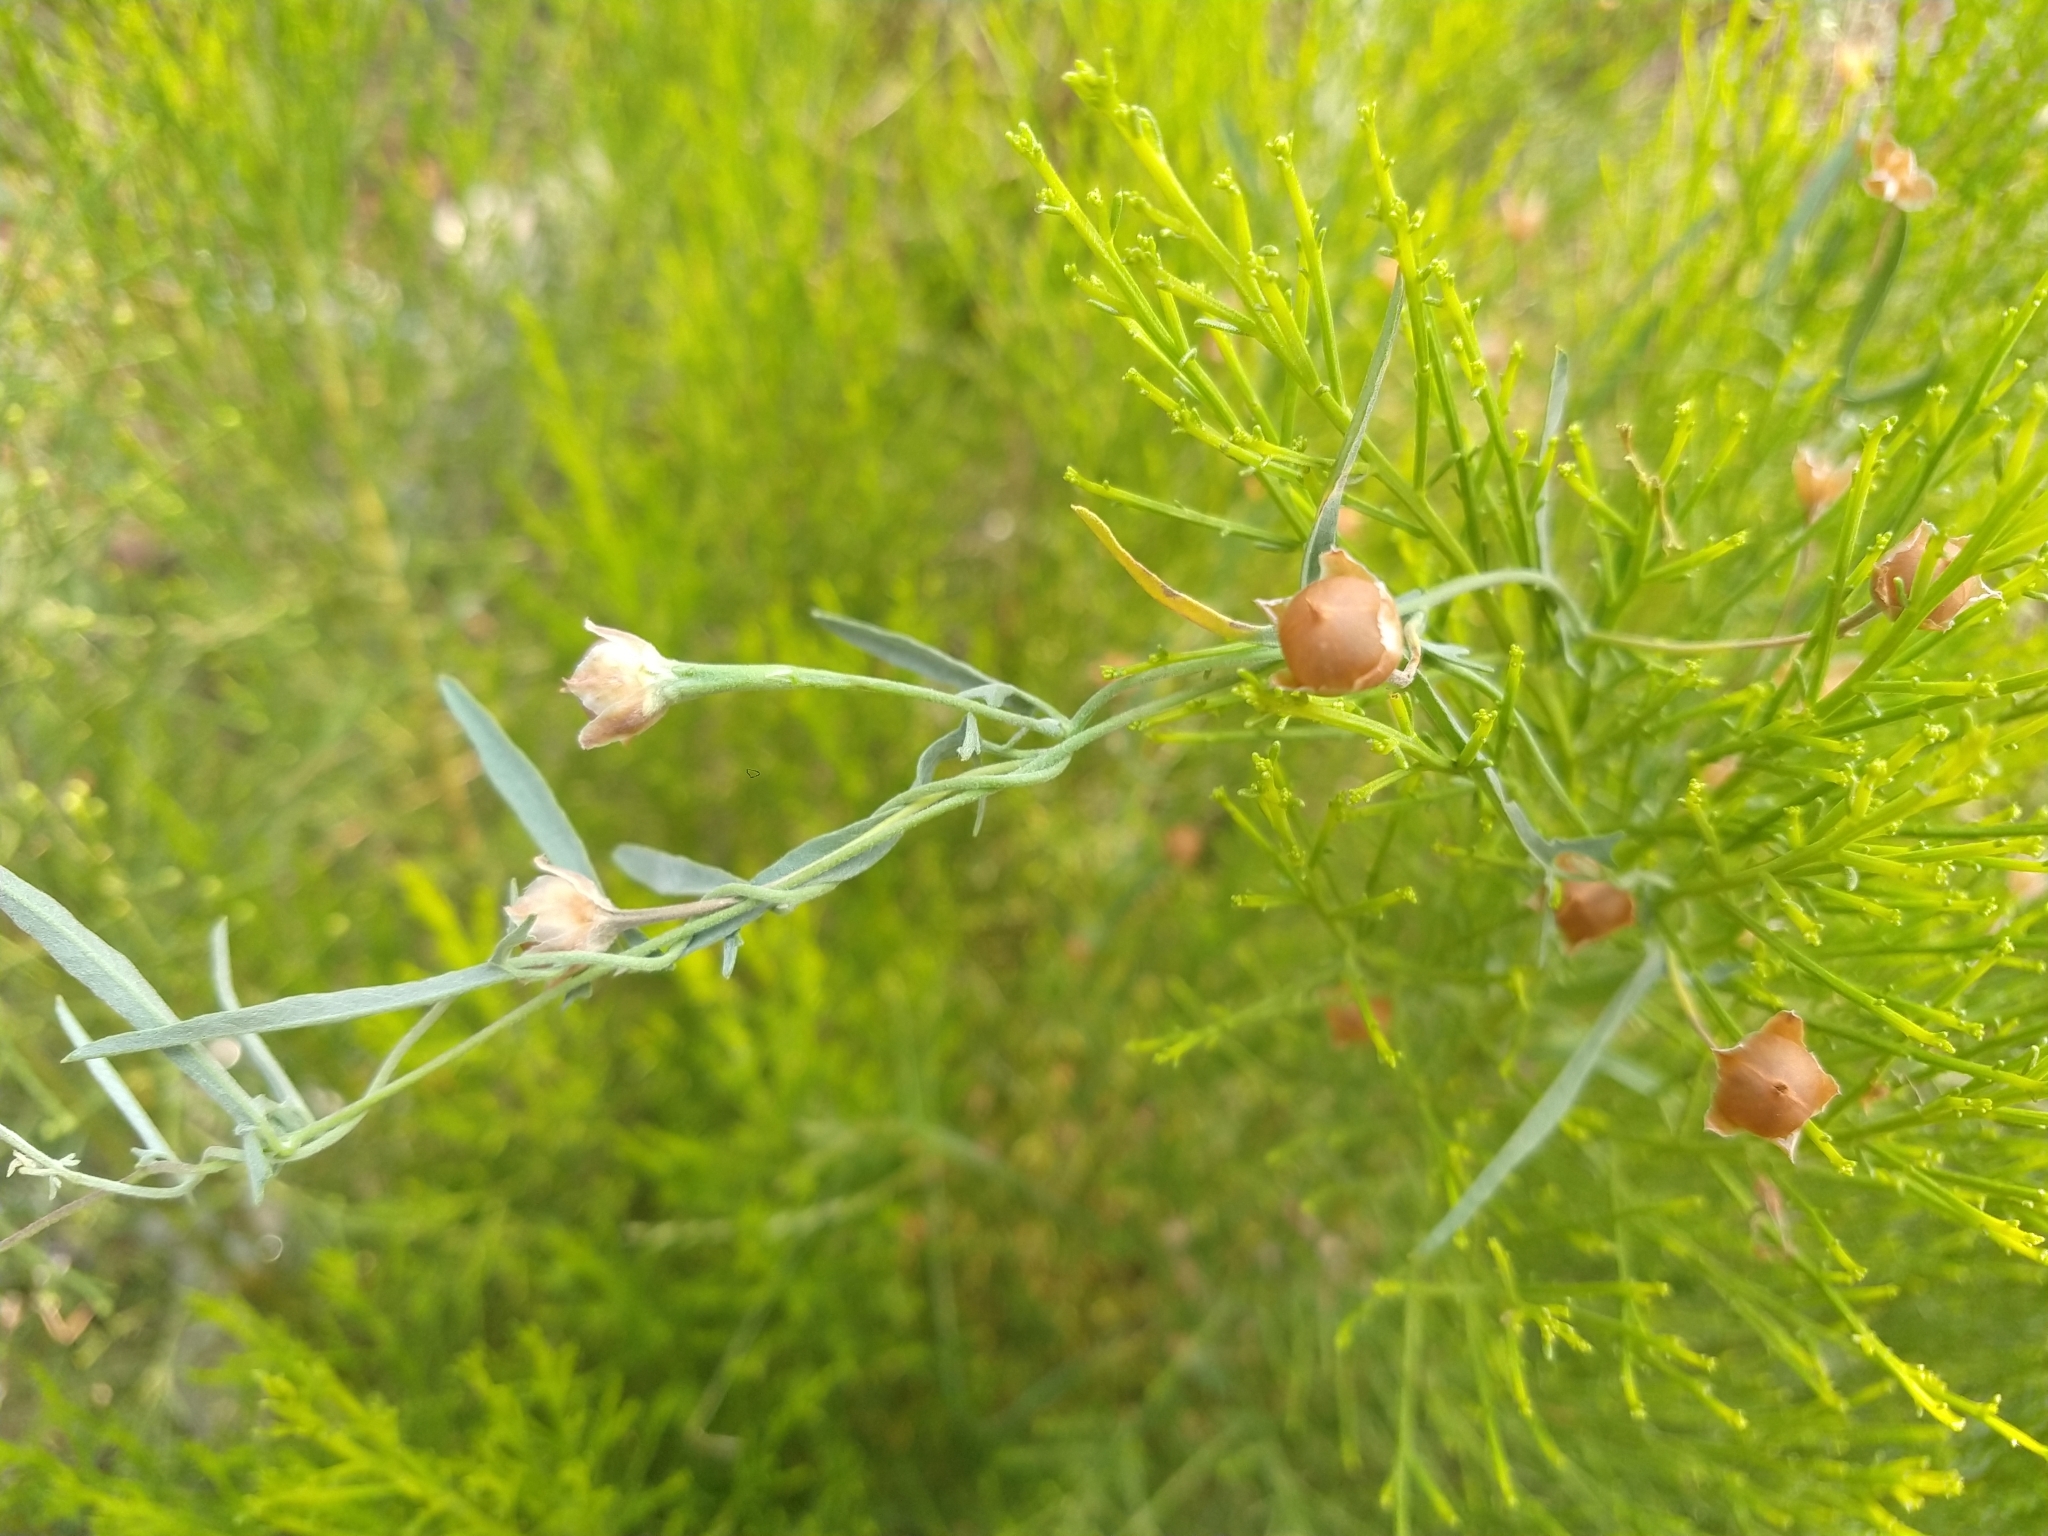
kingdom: Plantae
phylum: Tracheophyta
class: Magnoliopsida
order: Solanales
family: Convolvulaceae
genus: Convolvulus
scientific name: Convolvulus equitans
